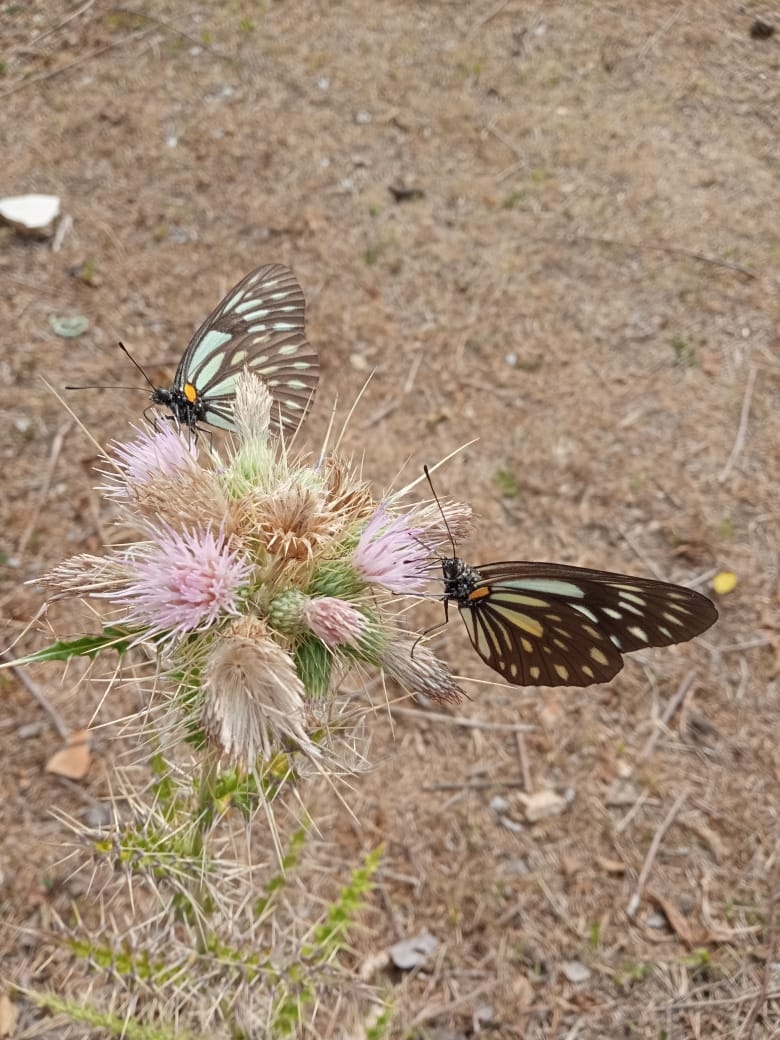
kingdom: Animalia
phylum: Arthropoda
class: Insecta
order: Lepidoptera
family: Pieridae
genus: Aporia
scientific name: Aporia agathon
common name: Great blackvein
